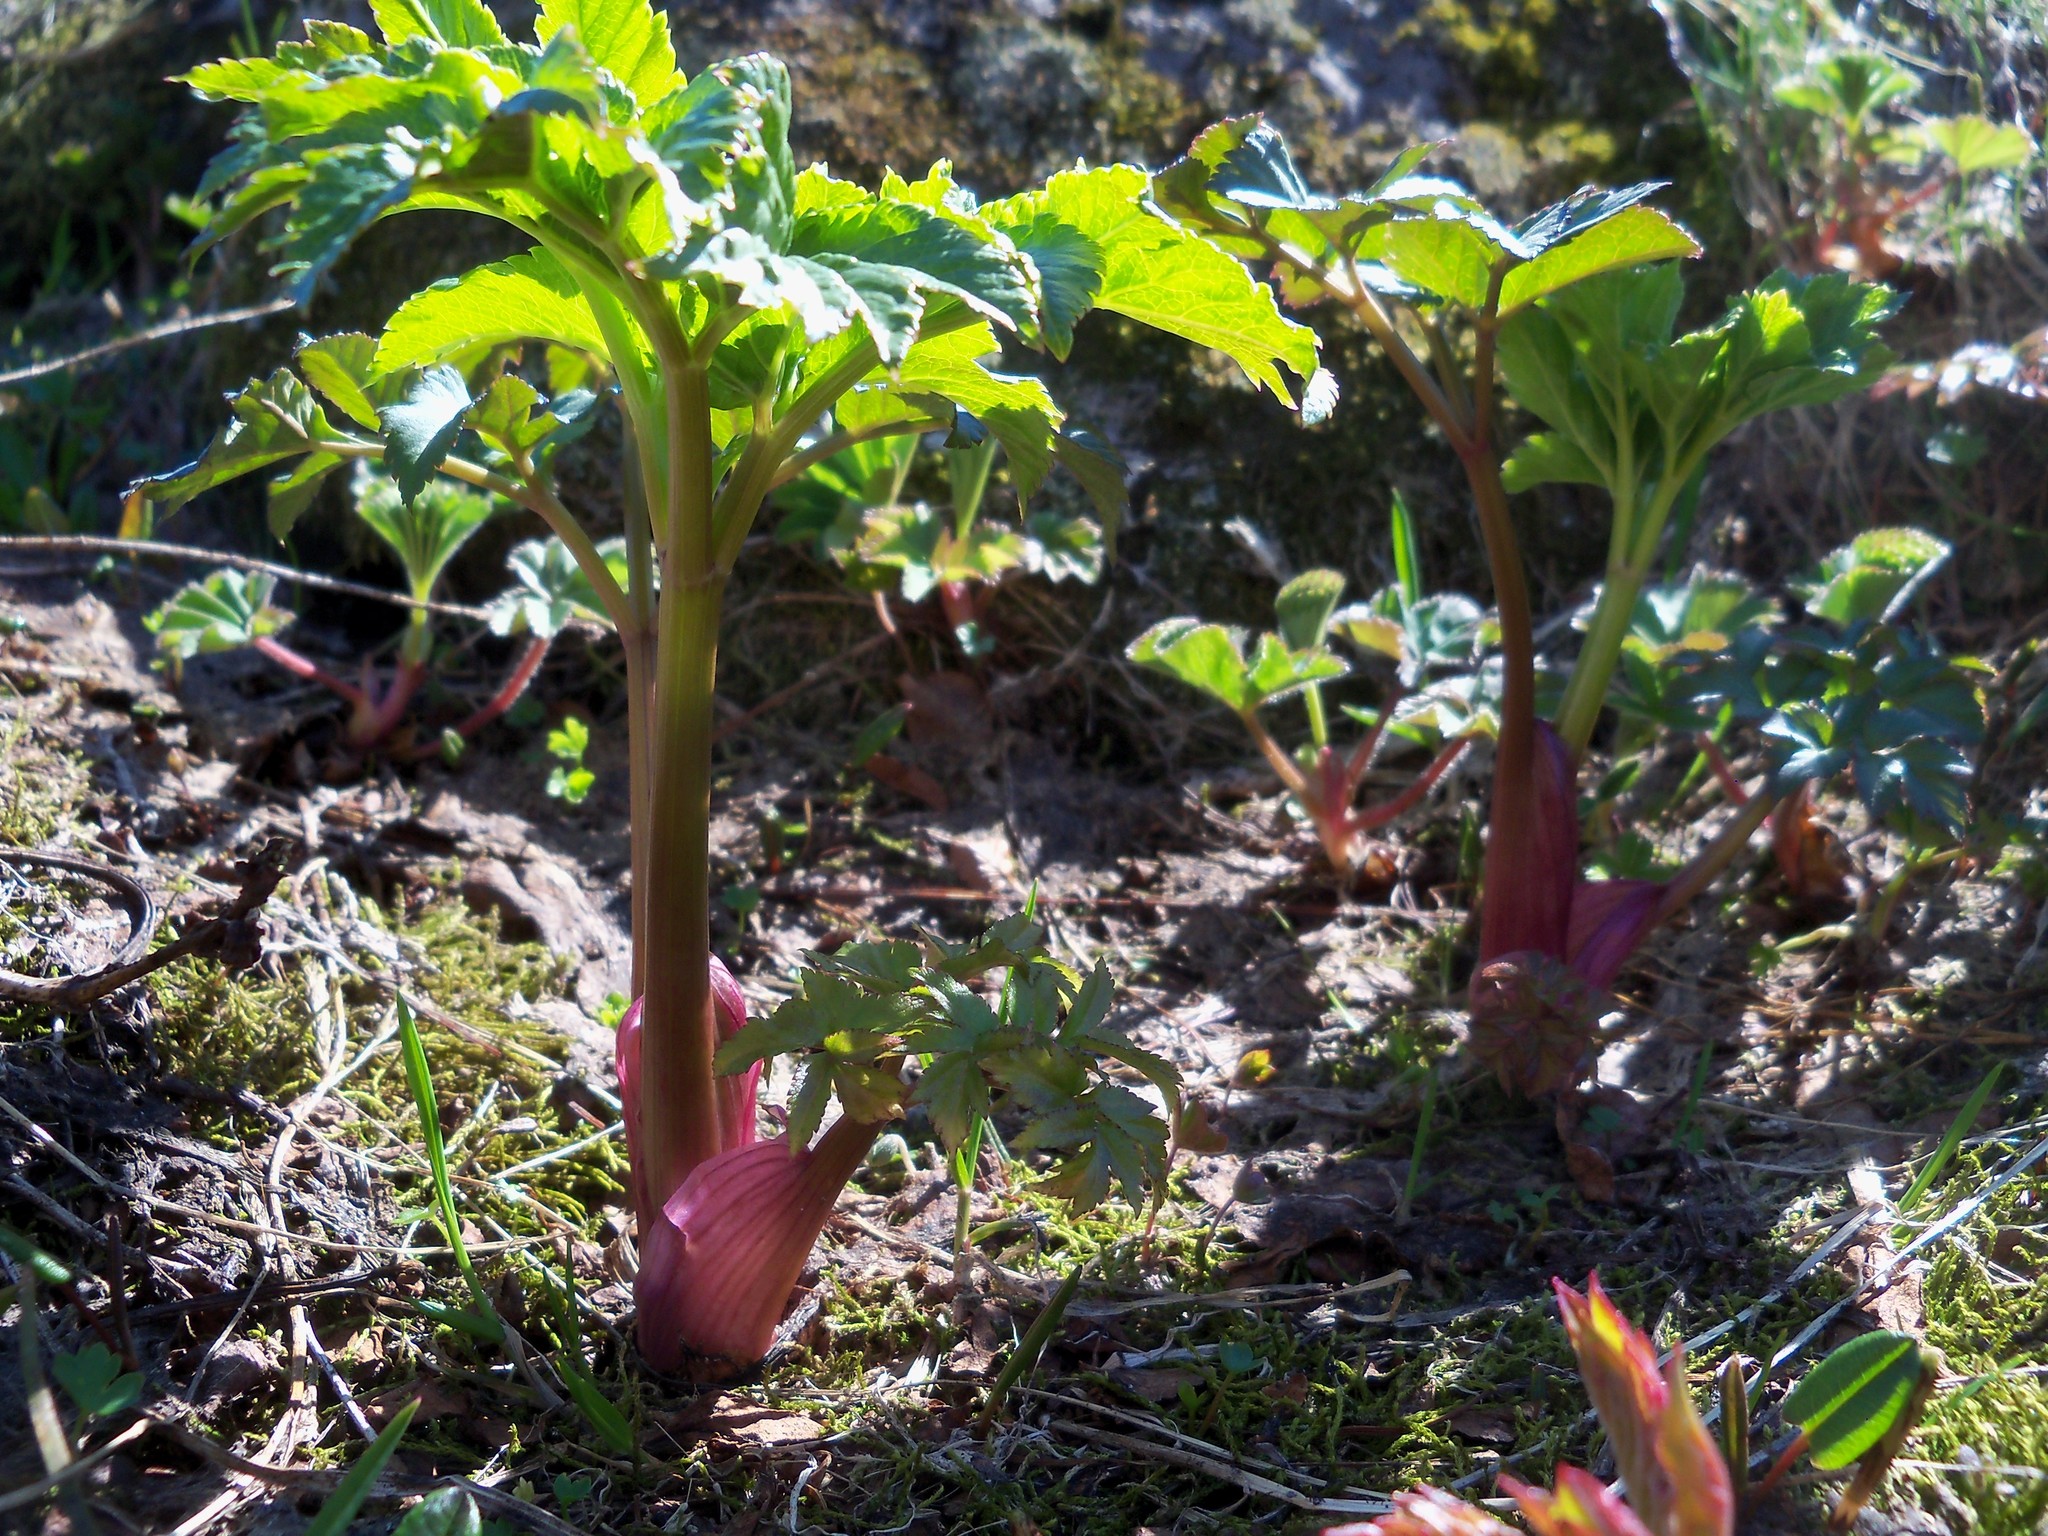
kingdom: Plantae
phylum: Tracheophyta
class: Magnoliopsida
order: Apiales
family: Apiaceae
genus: Angelica
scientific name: Angelica archangelica
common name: Garden angelica
